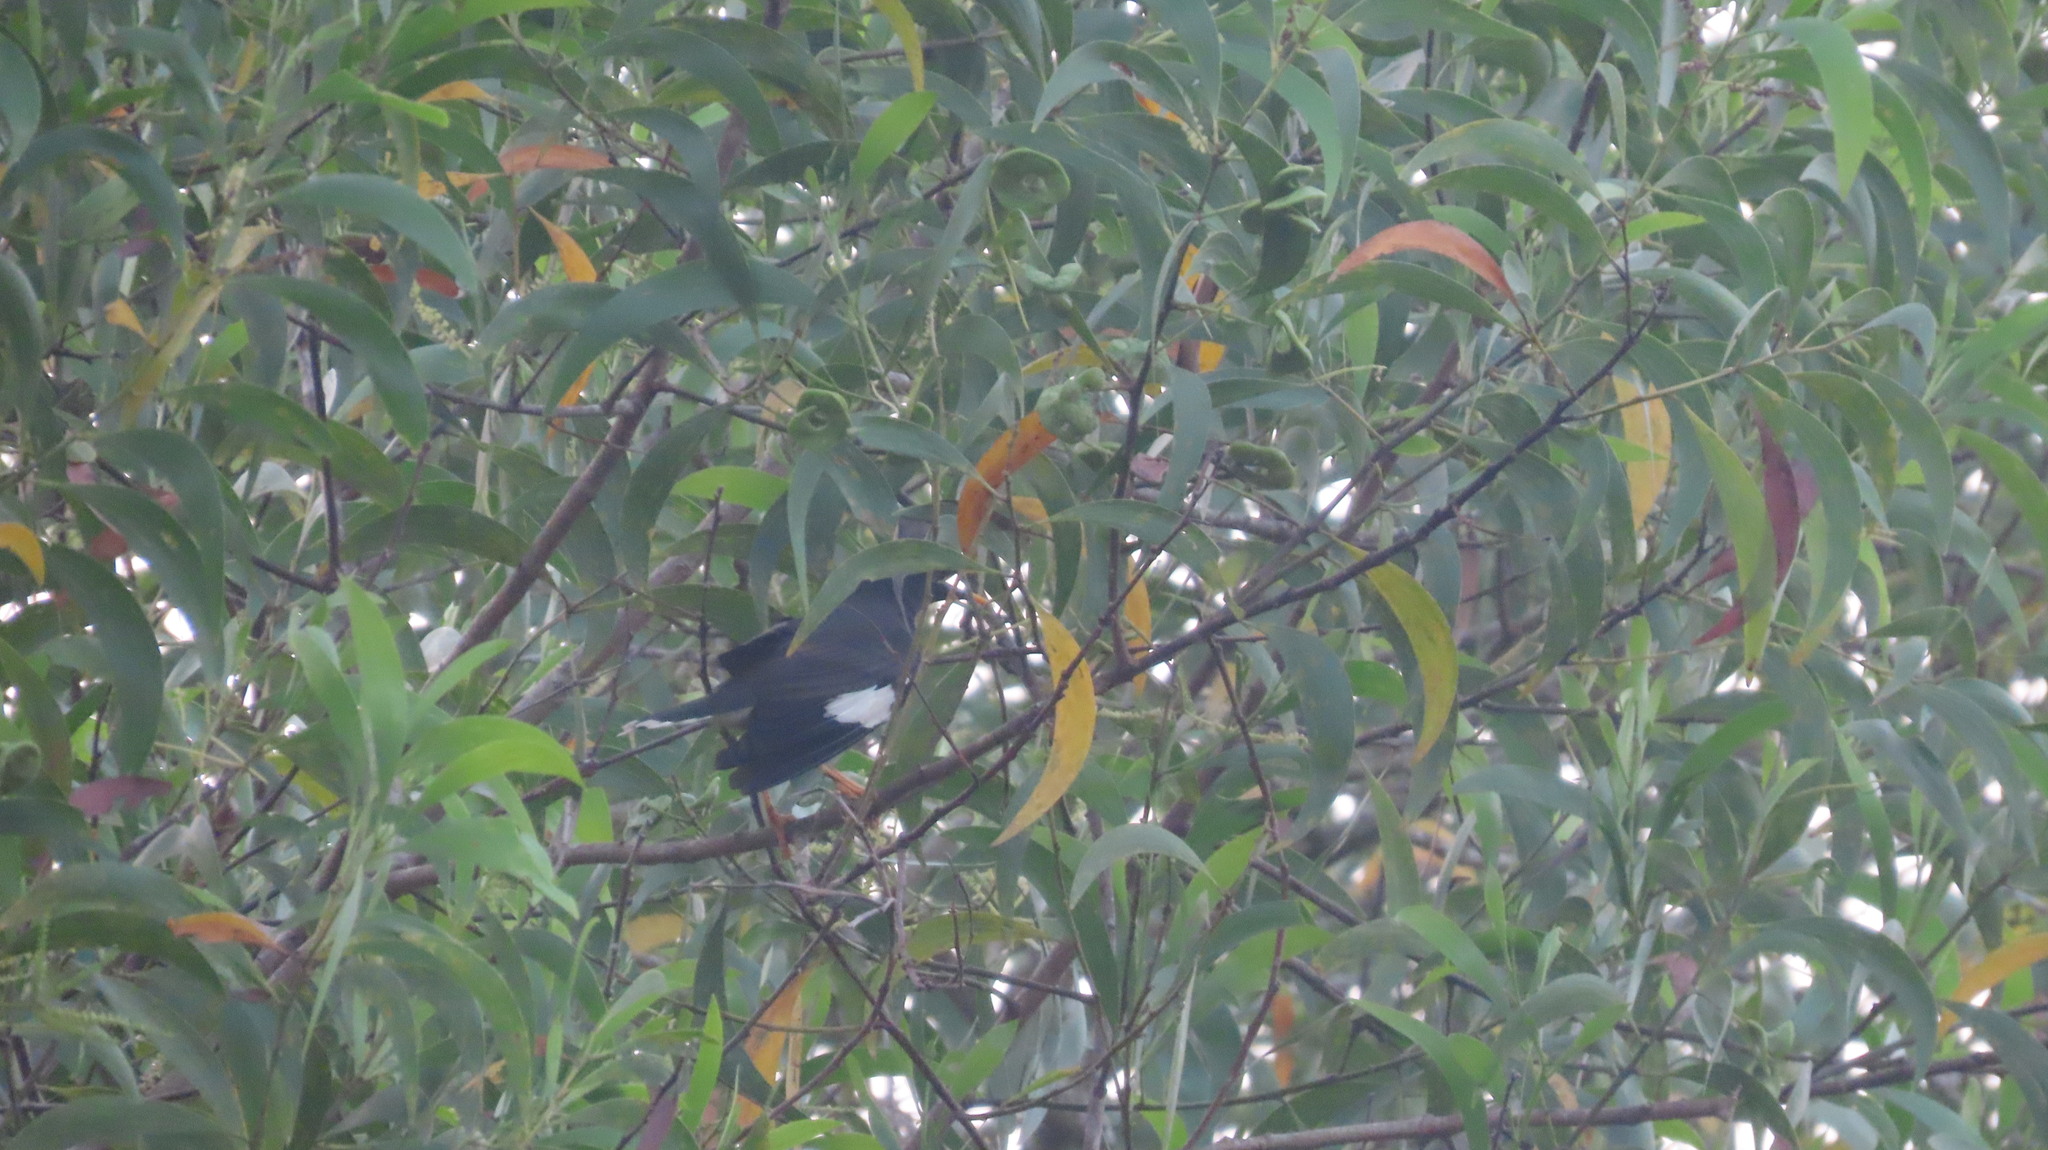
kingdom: Animalia
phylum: Chordata
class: Aves
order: Passeriformes
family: Sturnidae
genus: Acridotheres
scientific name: Acridotheres fuscus
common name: Jungle myna
